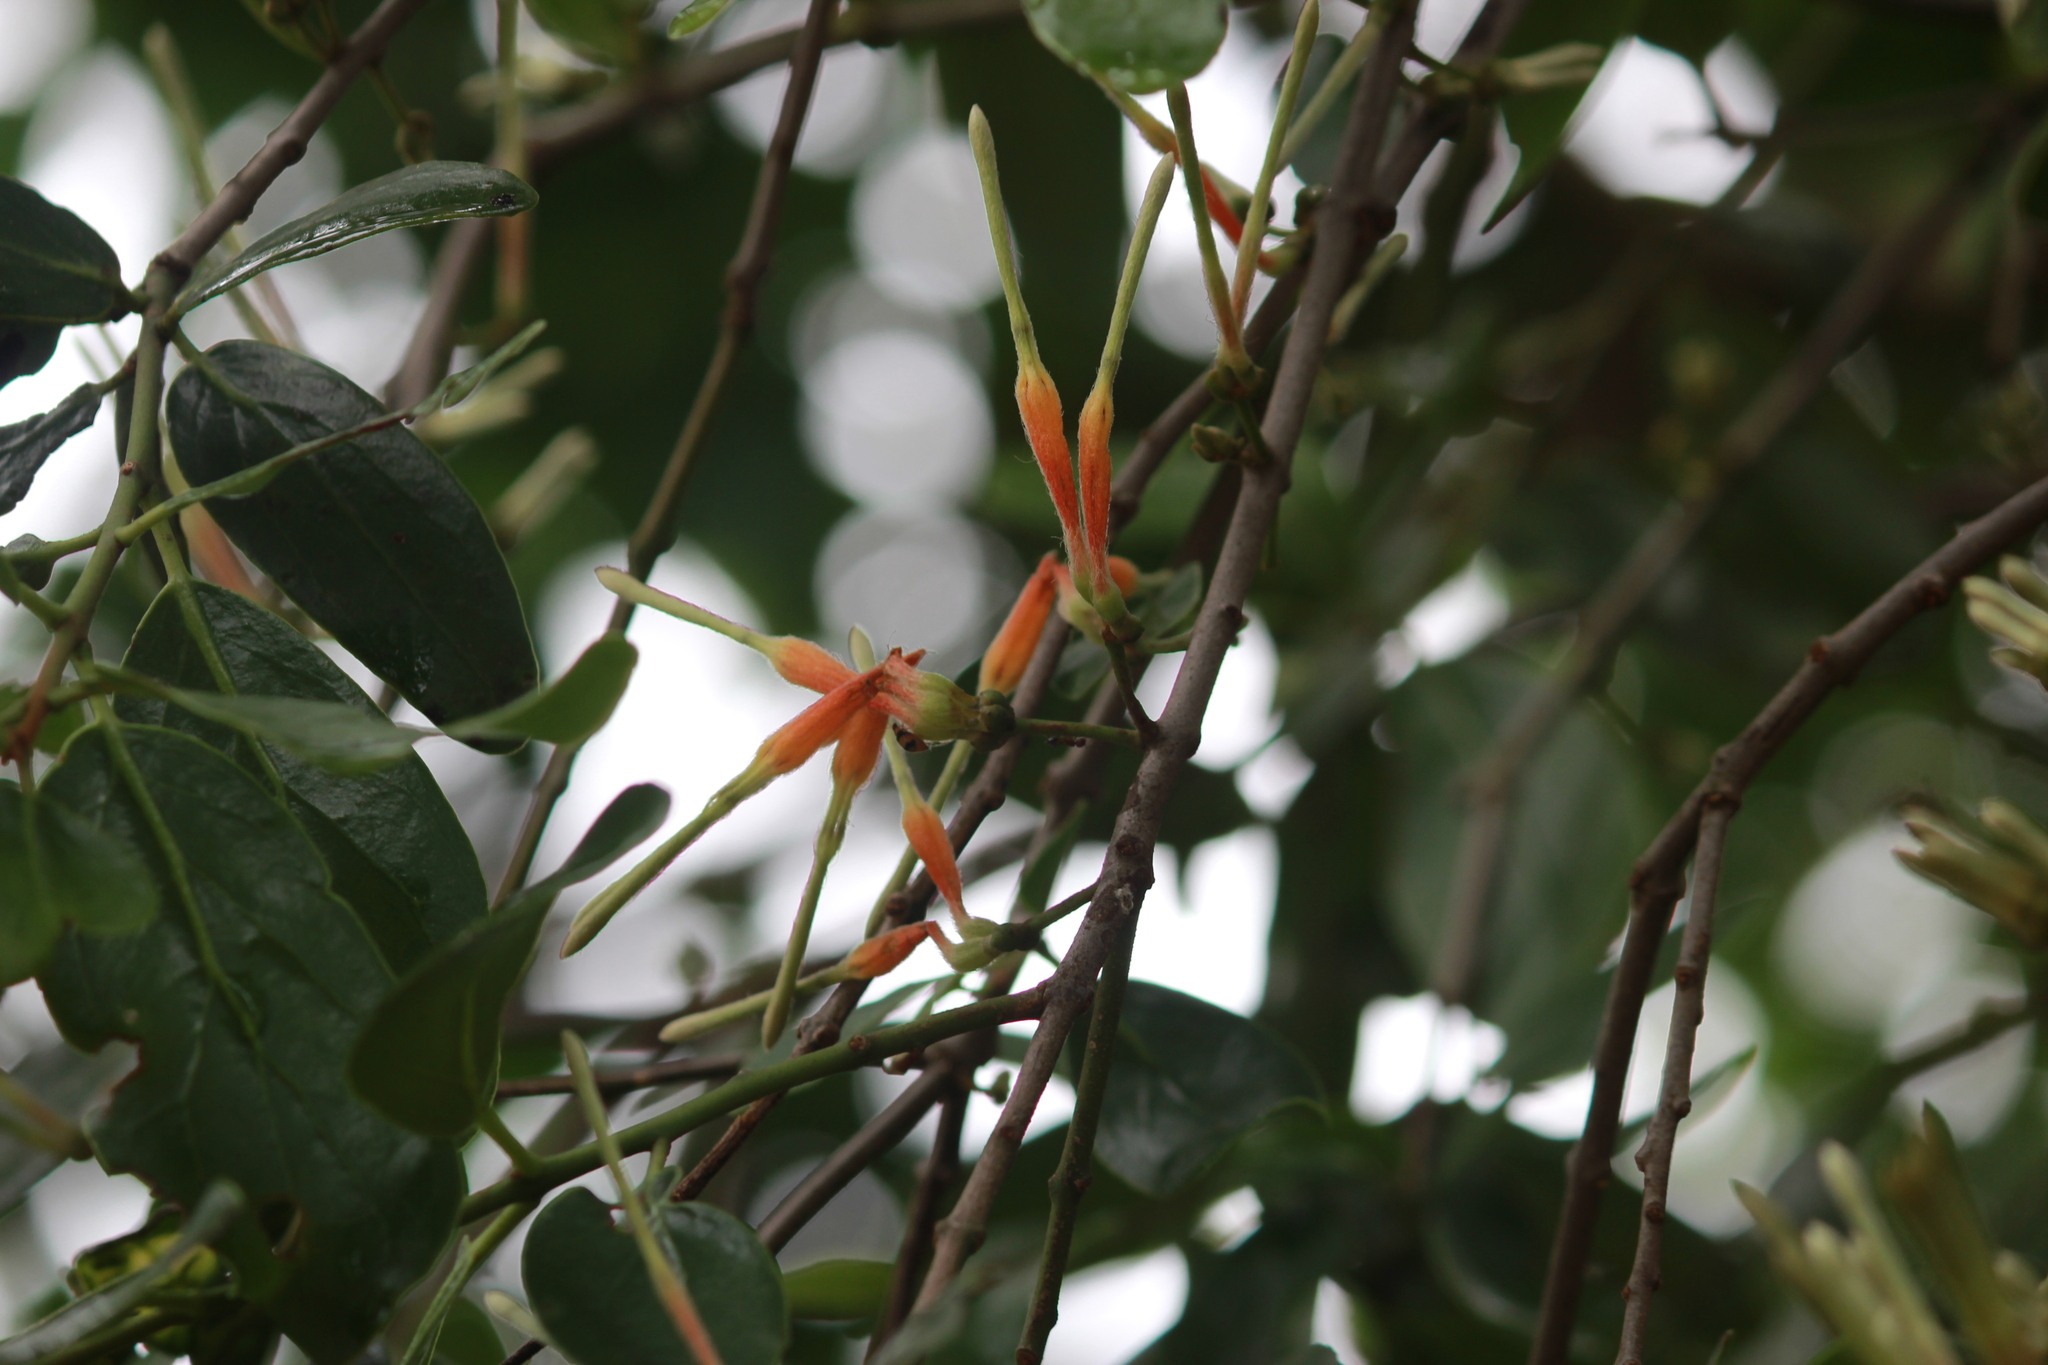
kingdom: Plantae
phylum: Tracheophyta
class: Magnoliopsida
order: Santalales
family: Loranthaceae
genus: Erianthemum
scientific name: Erianthemum dregei
